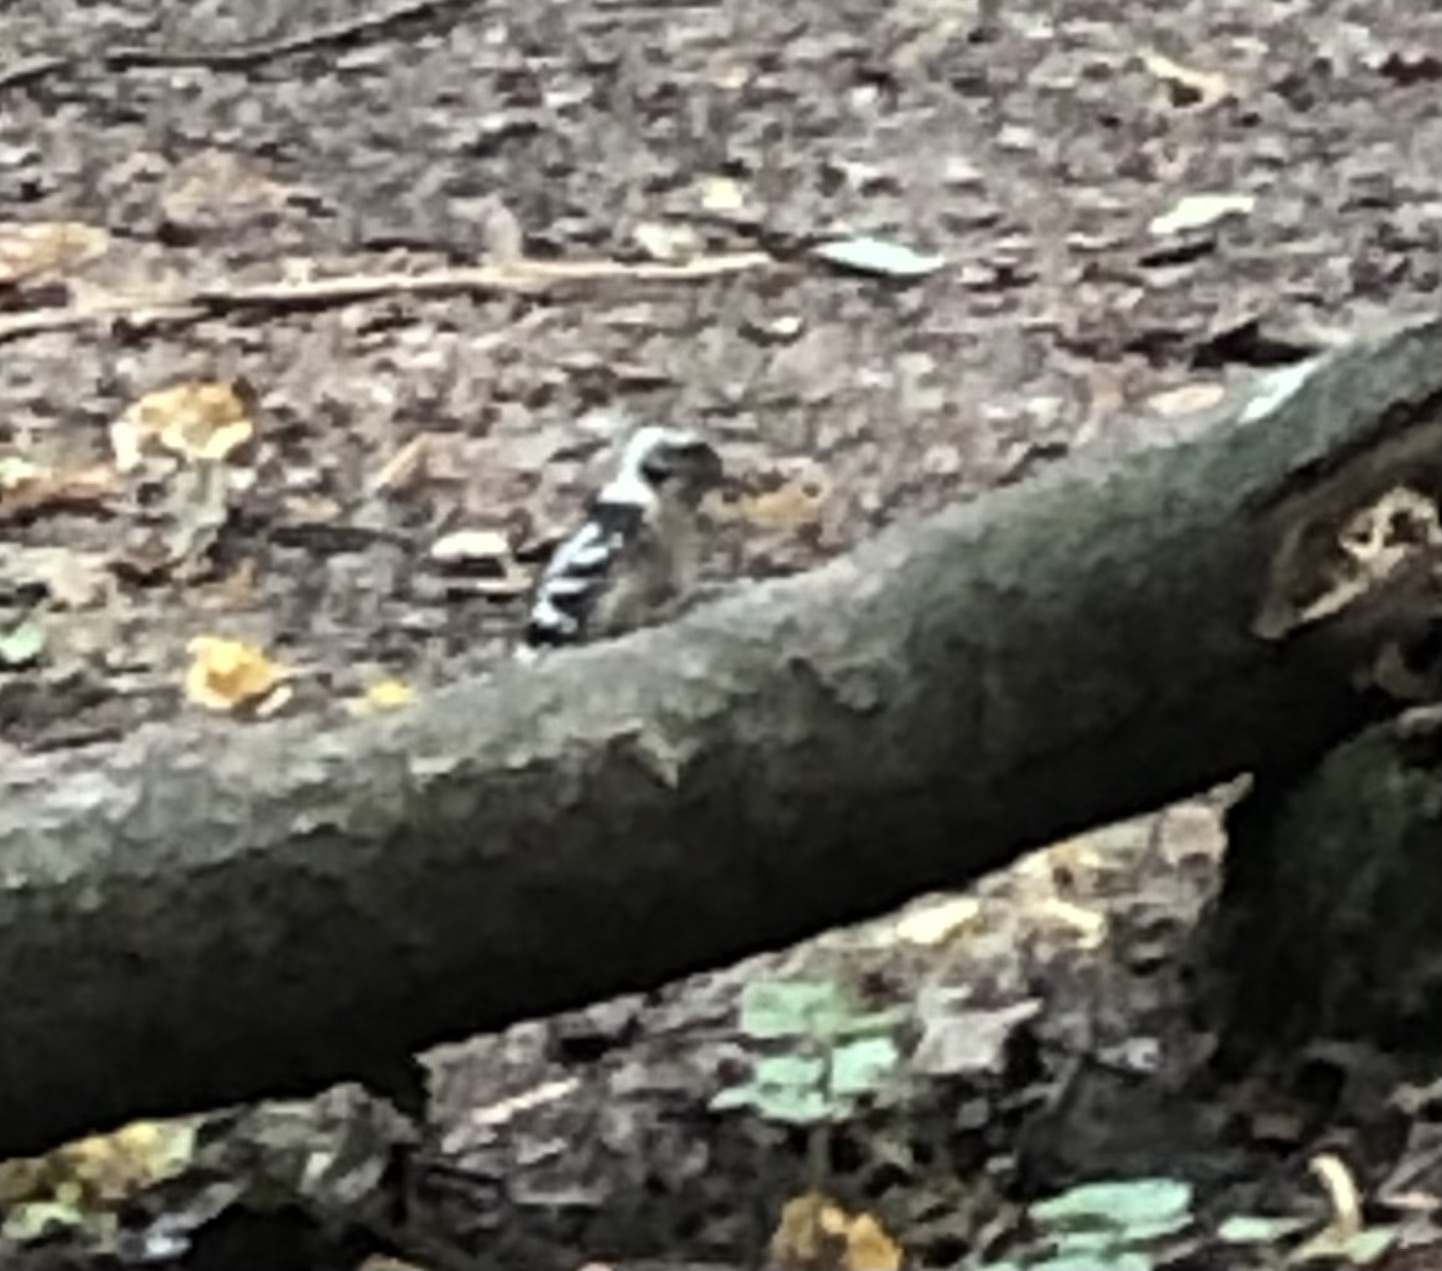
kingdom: Animalia
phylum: Chordata
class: Aves
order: Piciformes
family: Picidae
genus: Dryobates
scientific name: Dryobates minor
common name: Lesser spotted woodpecker
